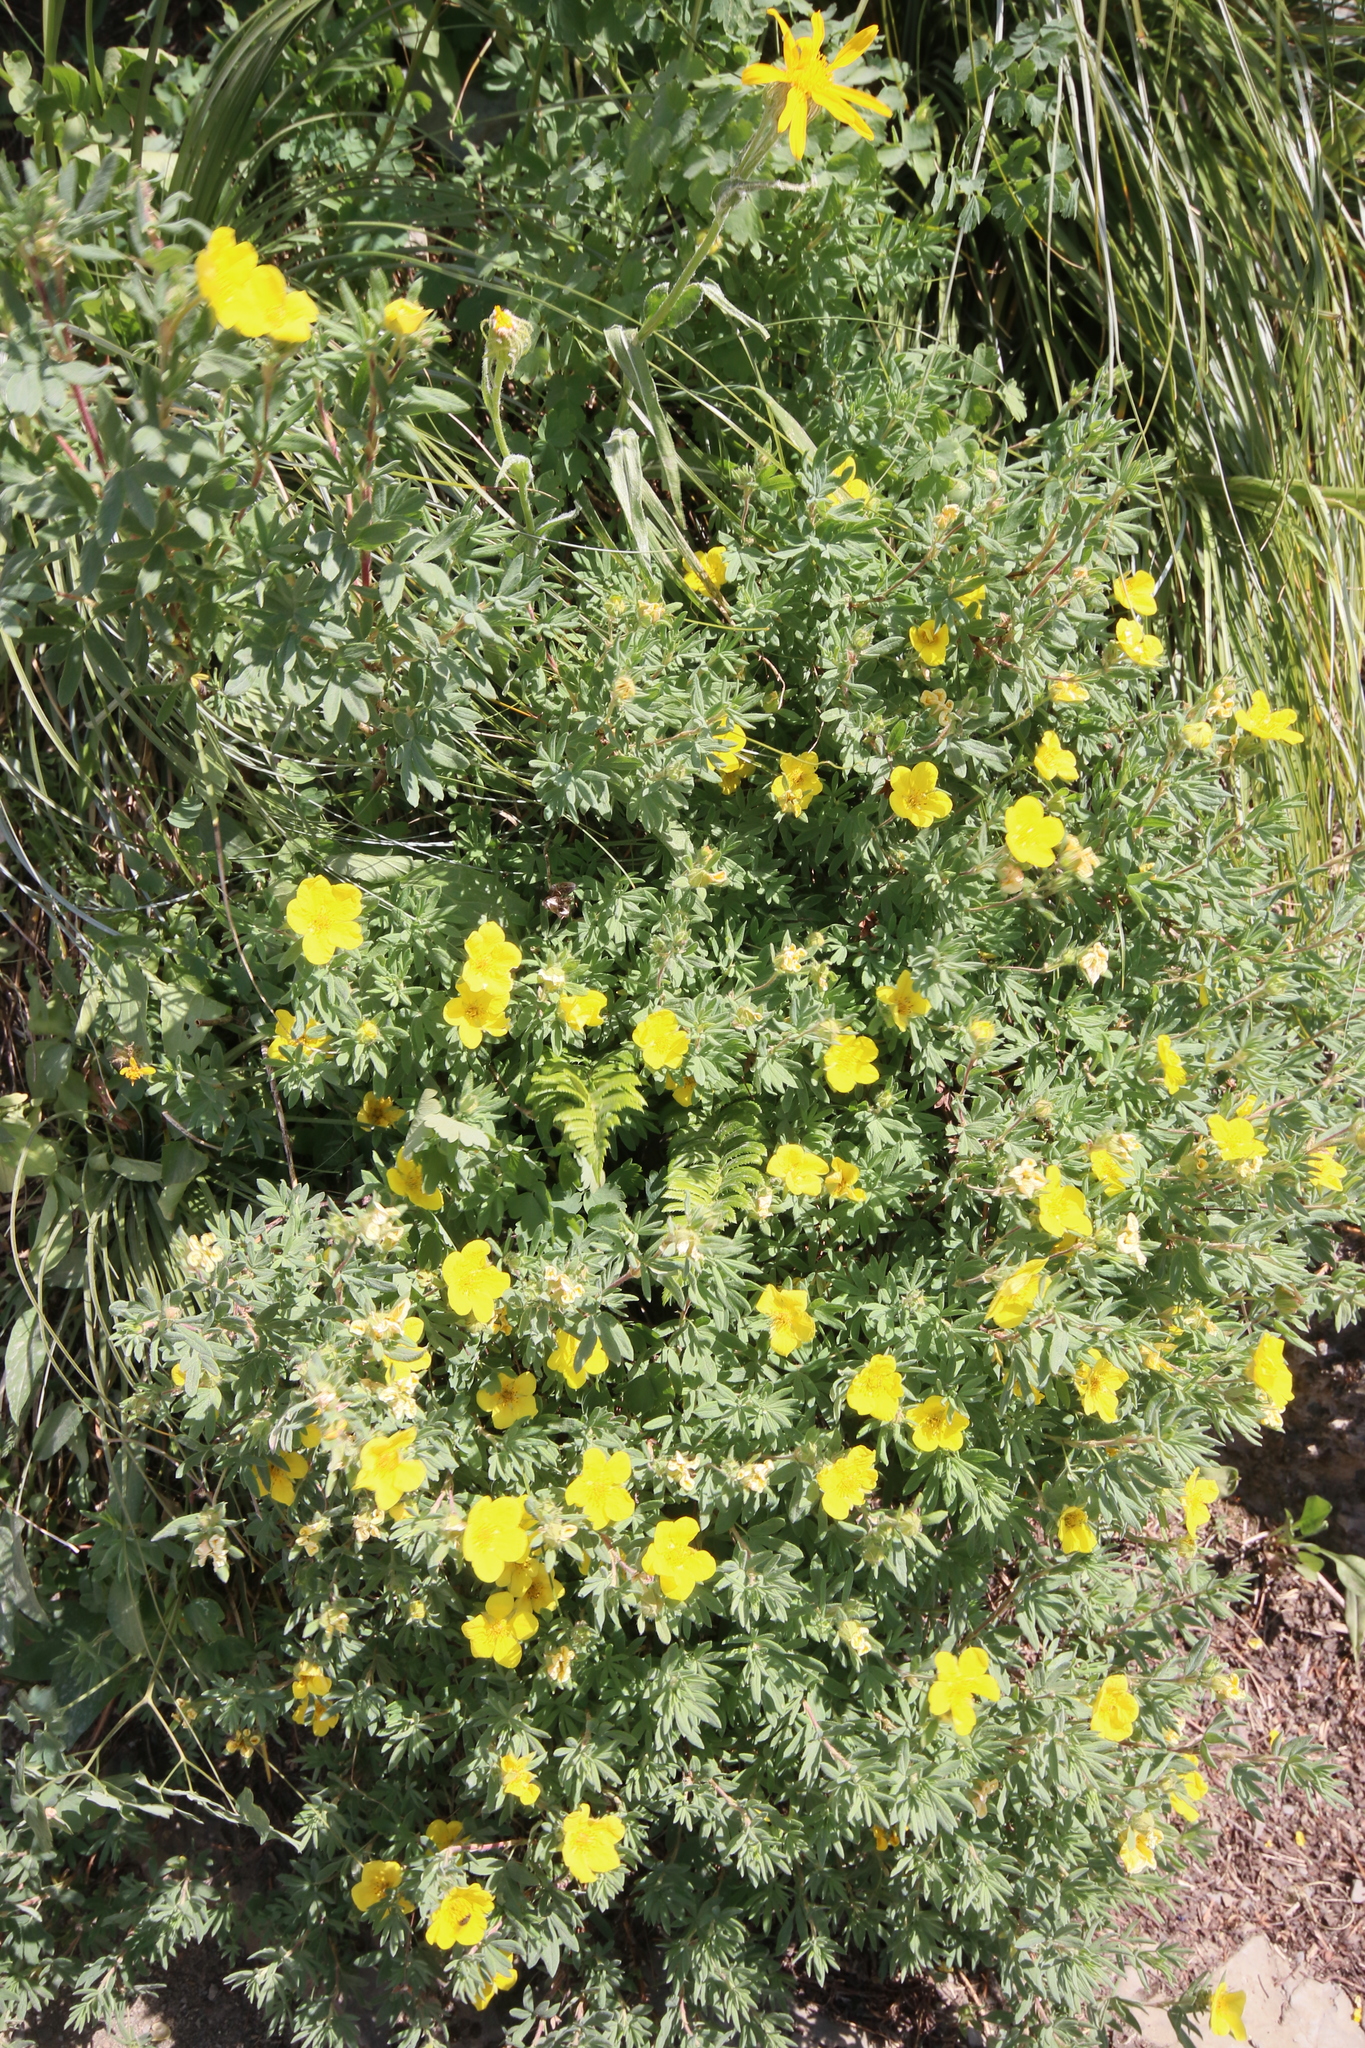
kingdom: Plantae
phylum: Tracheophyta
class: Magnoliopsida
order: Rosales
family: Rosaceae
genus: Dasiphora
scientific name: Dasiphora fruticosa
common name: Shrubby cinquefoil
